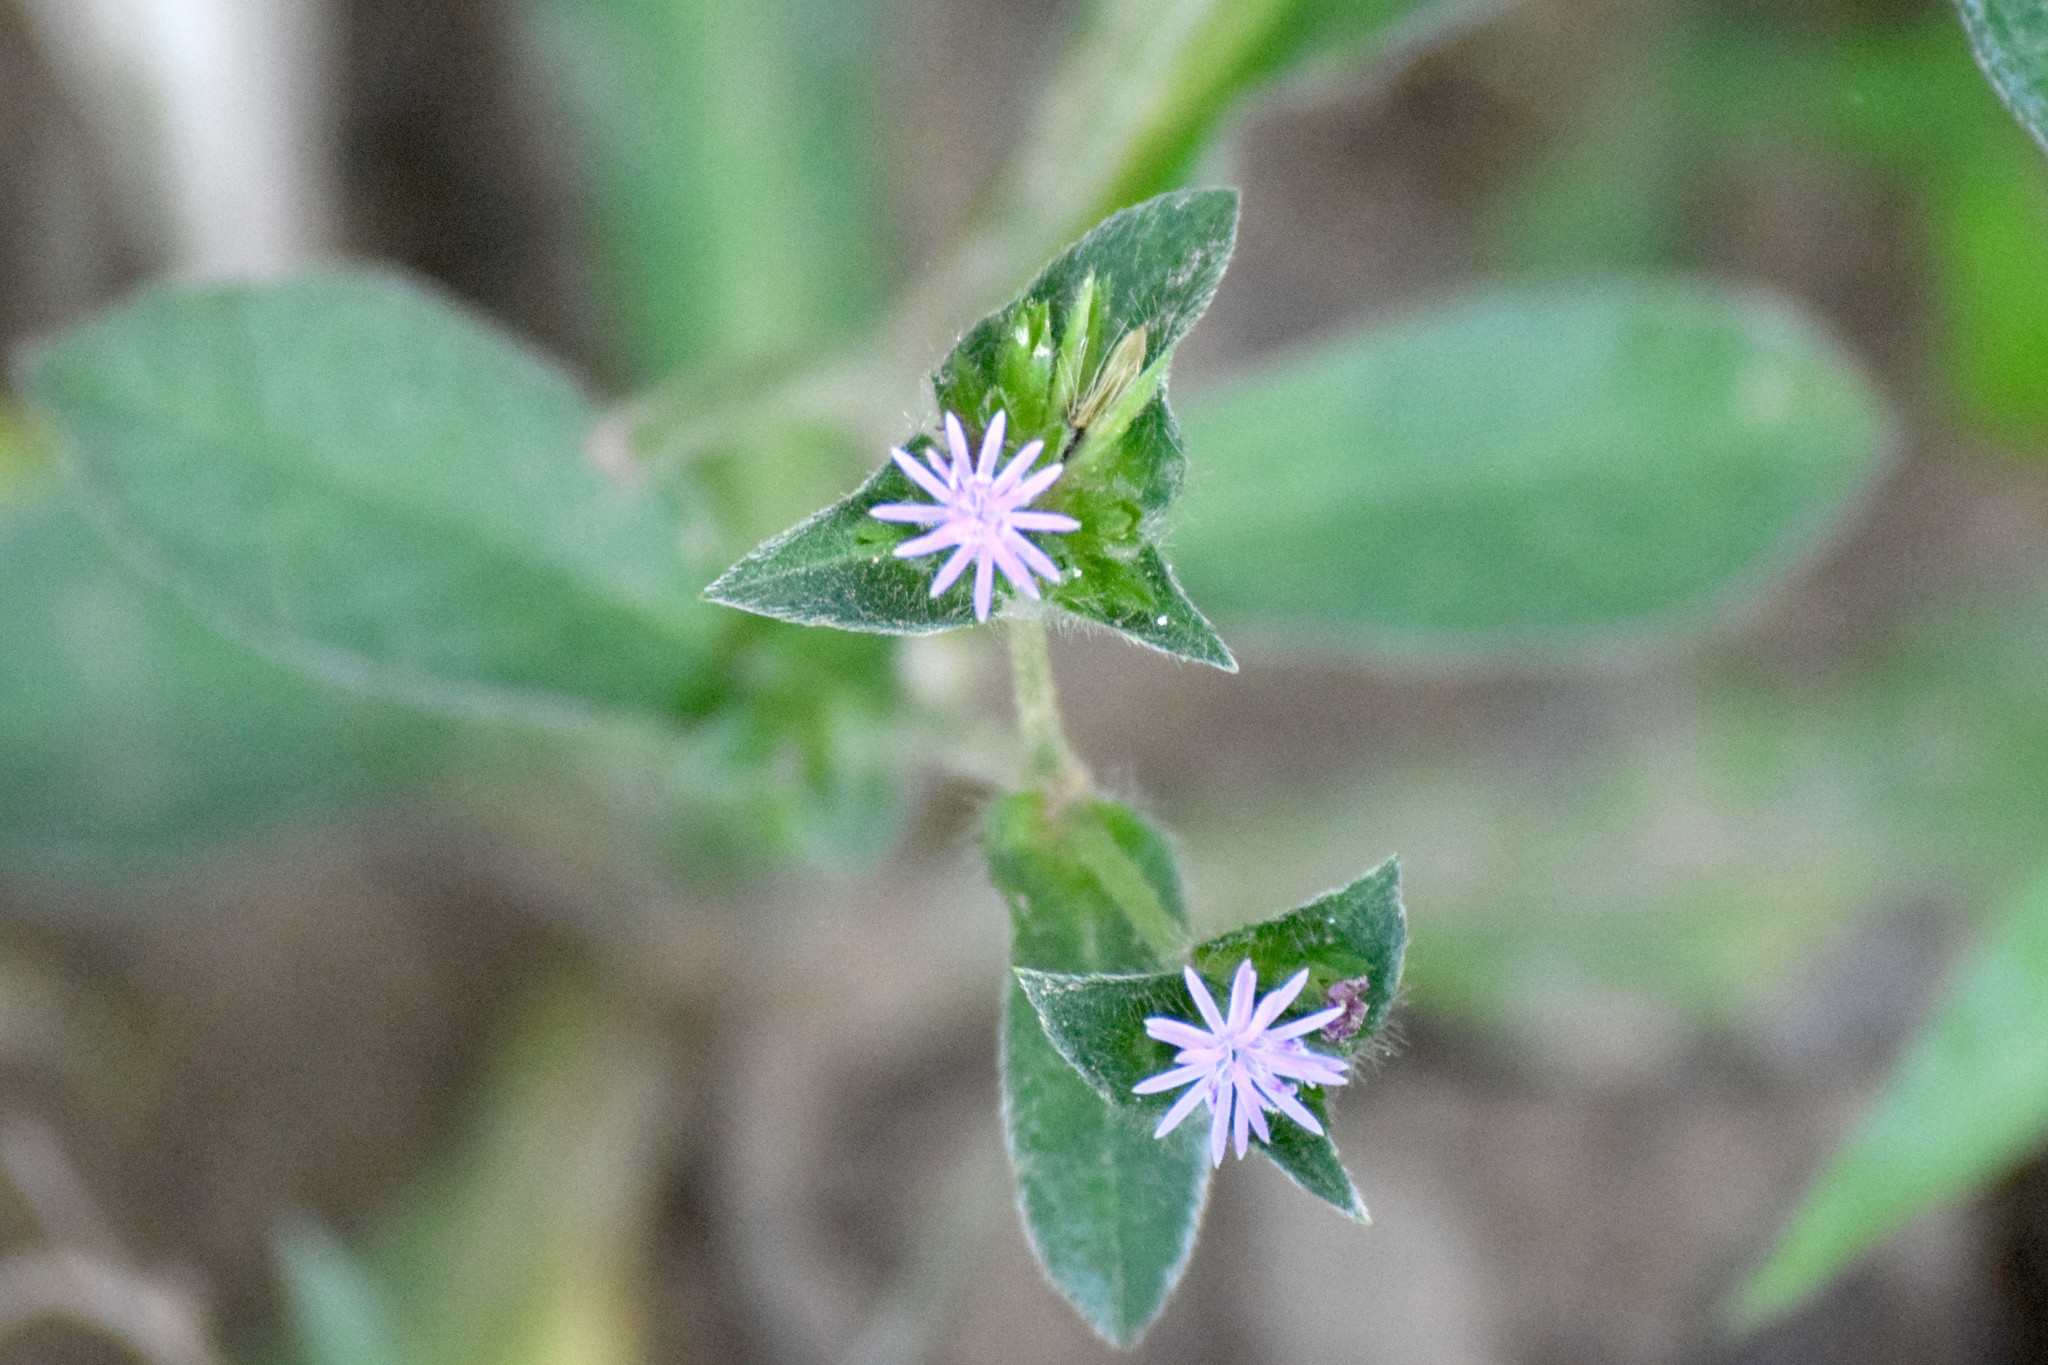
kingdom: Plantae
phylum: Tracheophyta
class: Magnoliopsida
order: Asterales
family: Asteraceae
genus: Elephantopus
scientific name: Elephantopus scaber
